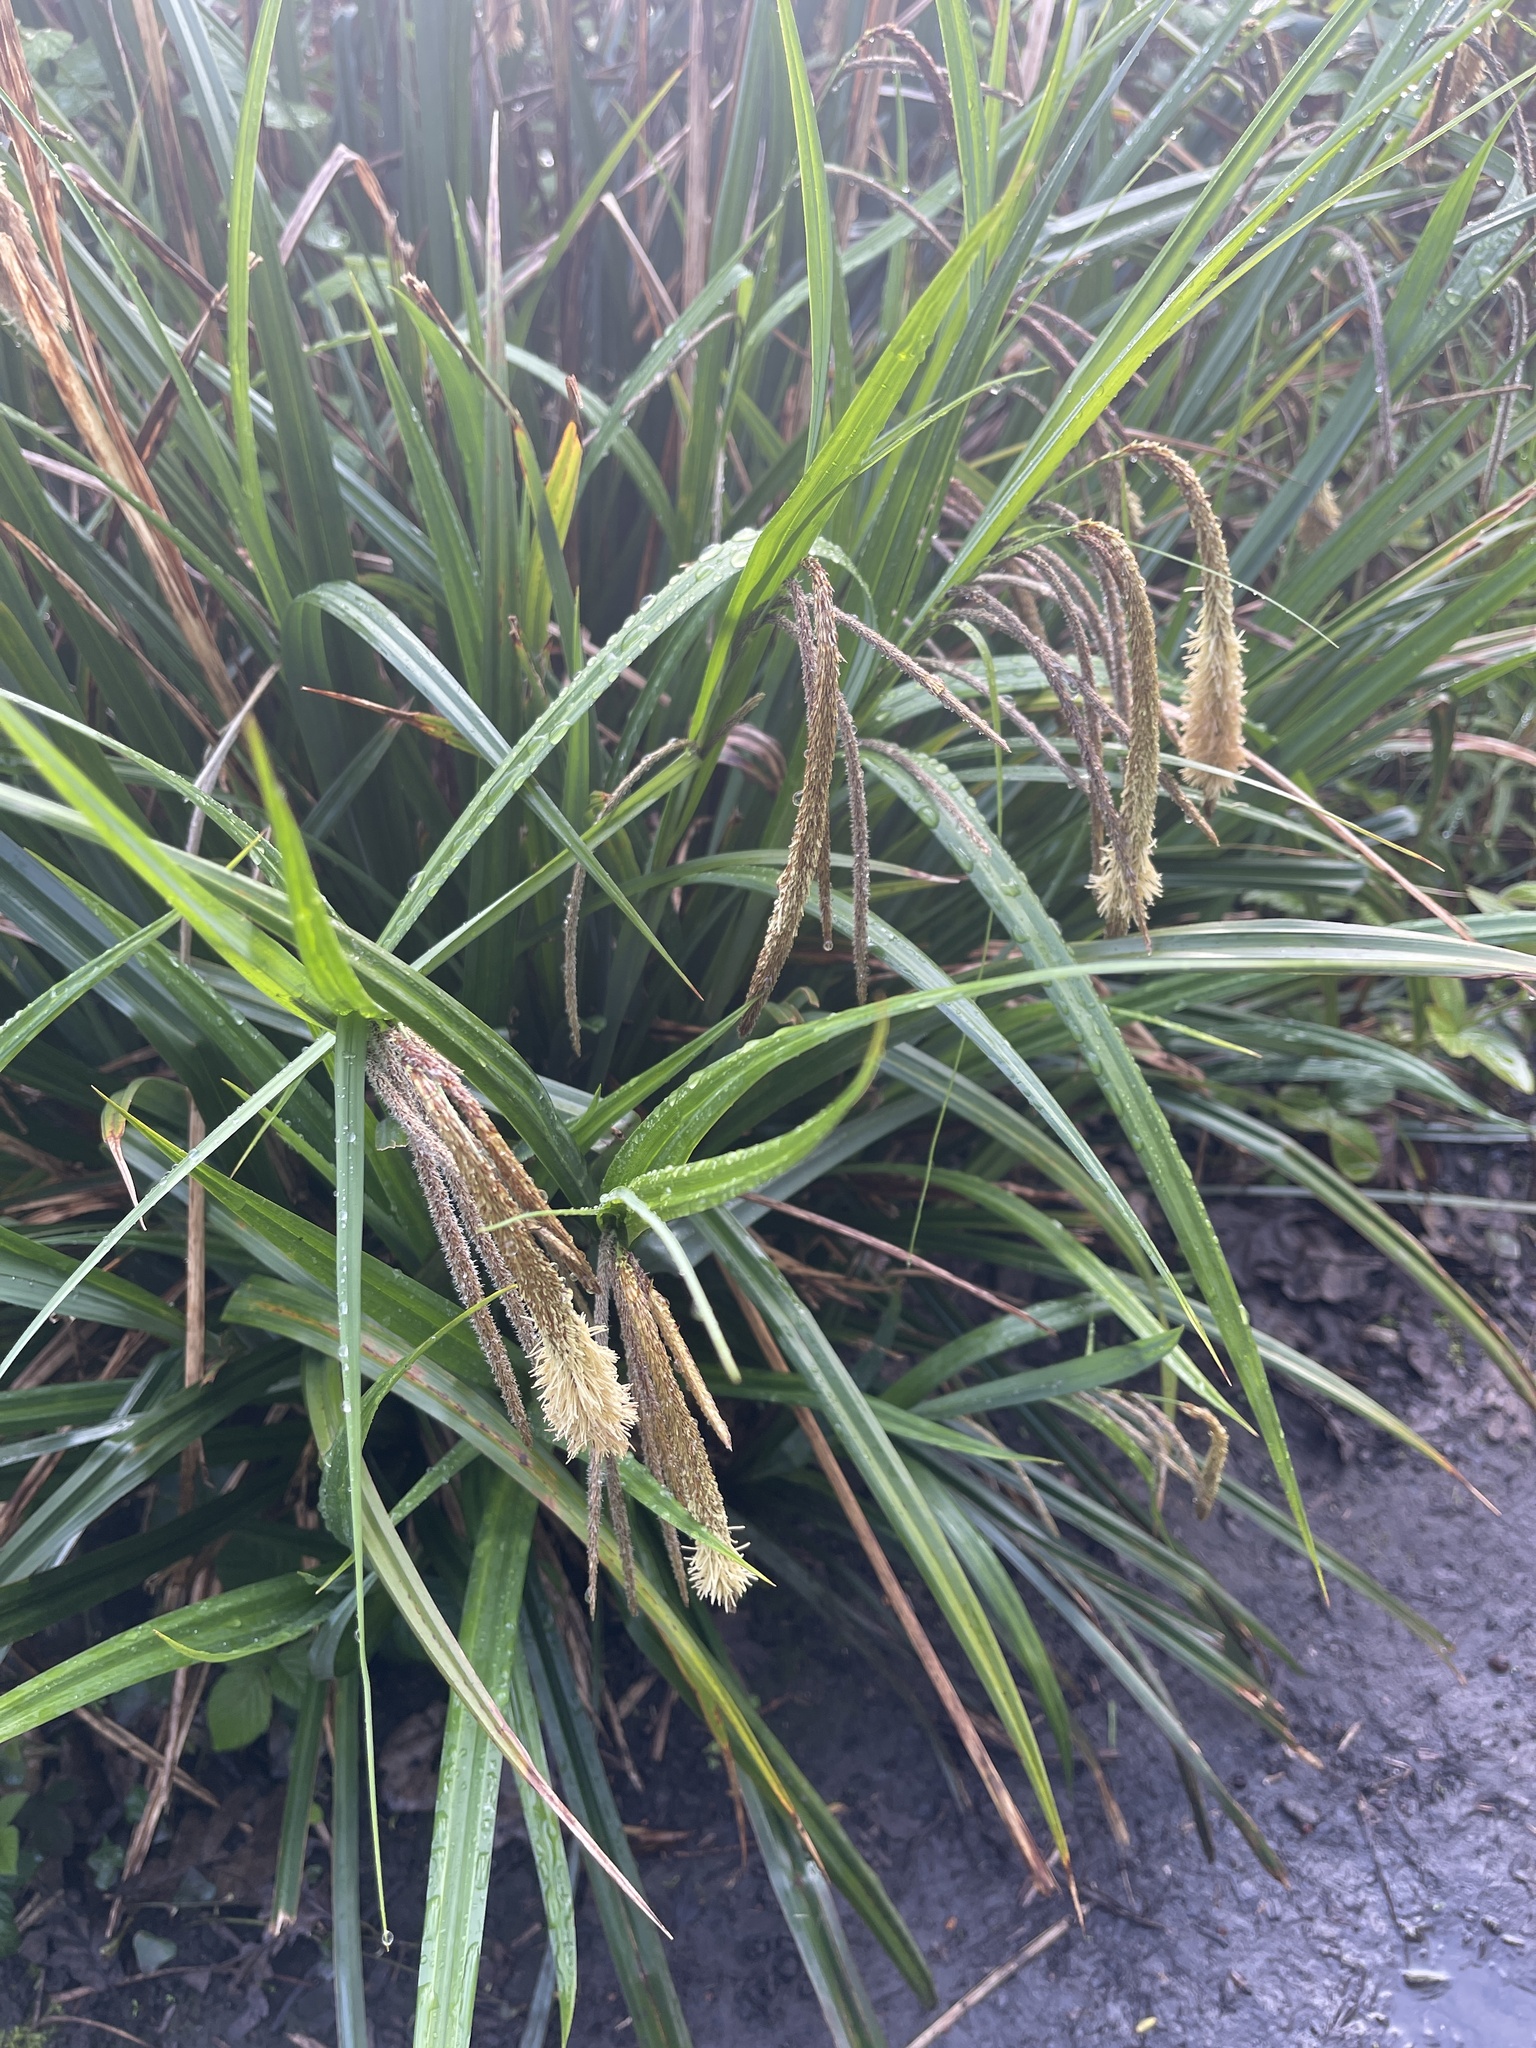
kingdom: Plantae
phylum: Tracheophyta
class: Liliopsida
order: Poales
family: Cyperaceae
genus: Carex
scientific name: Carex pendula
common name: Pendulous sedge
